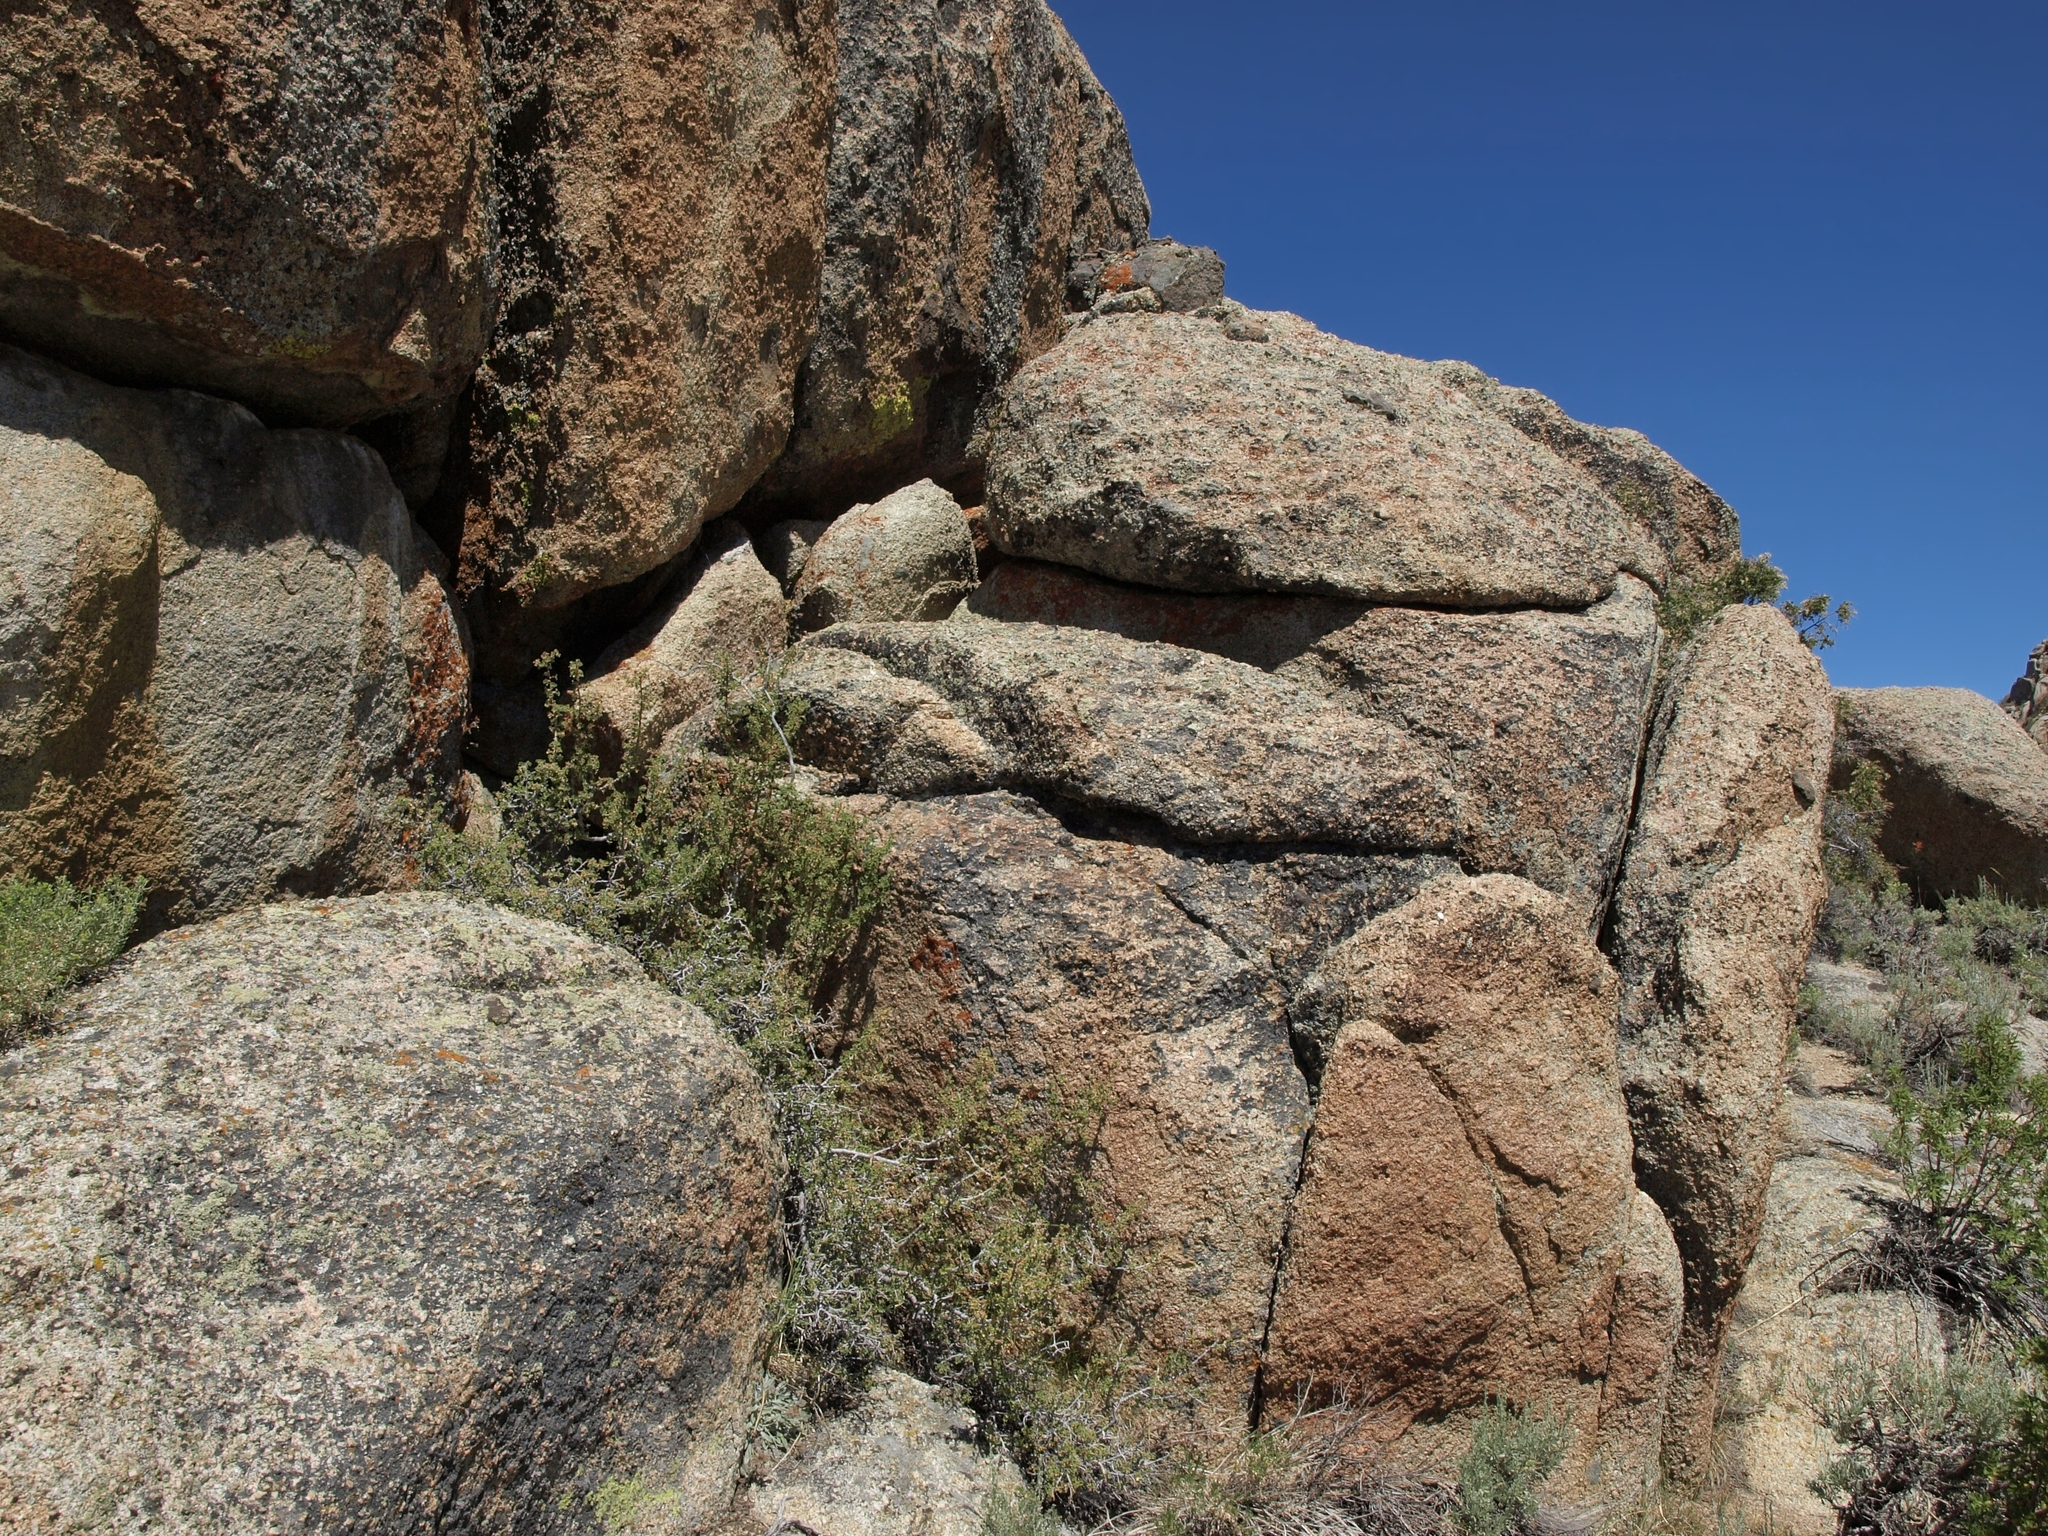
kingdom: Plantae
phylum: Tracheophyta
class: Magnoliopsida
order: Saxifragales
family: Grossulariaceae
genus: Ribes
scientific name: Ribes velutinum
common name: Desert gooseberry
